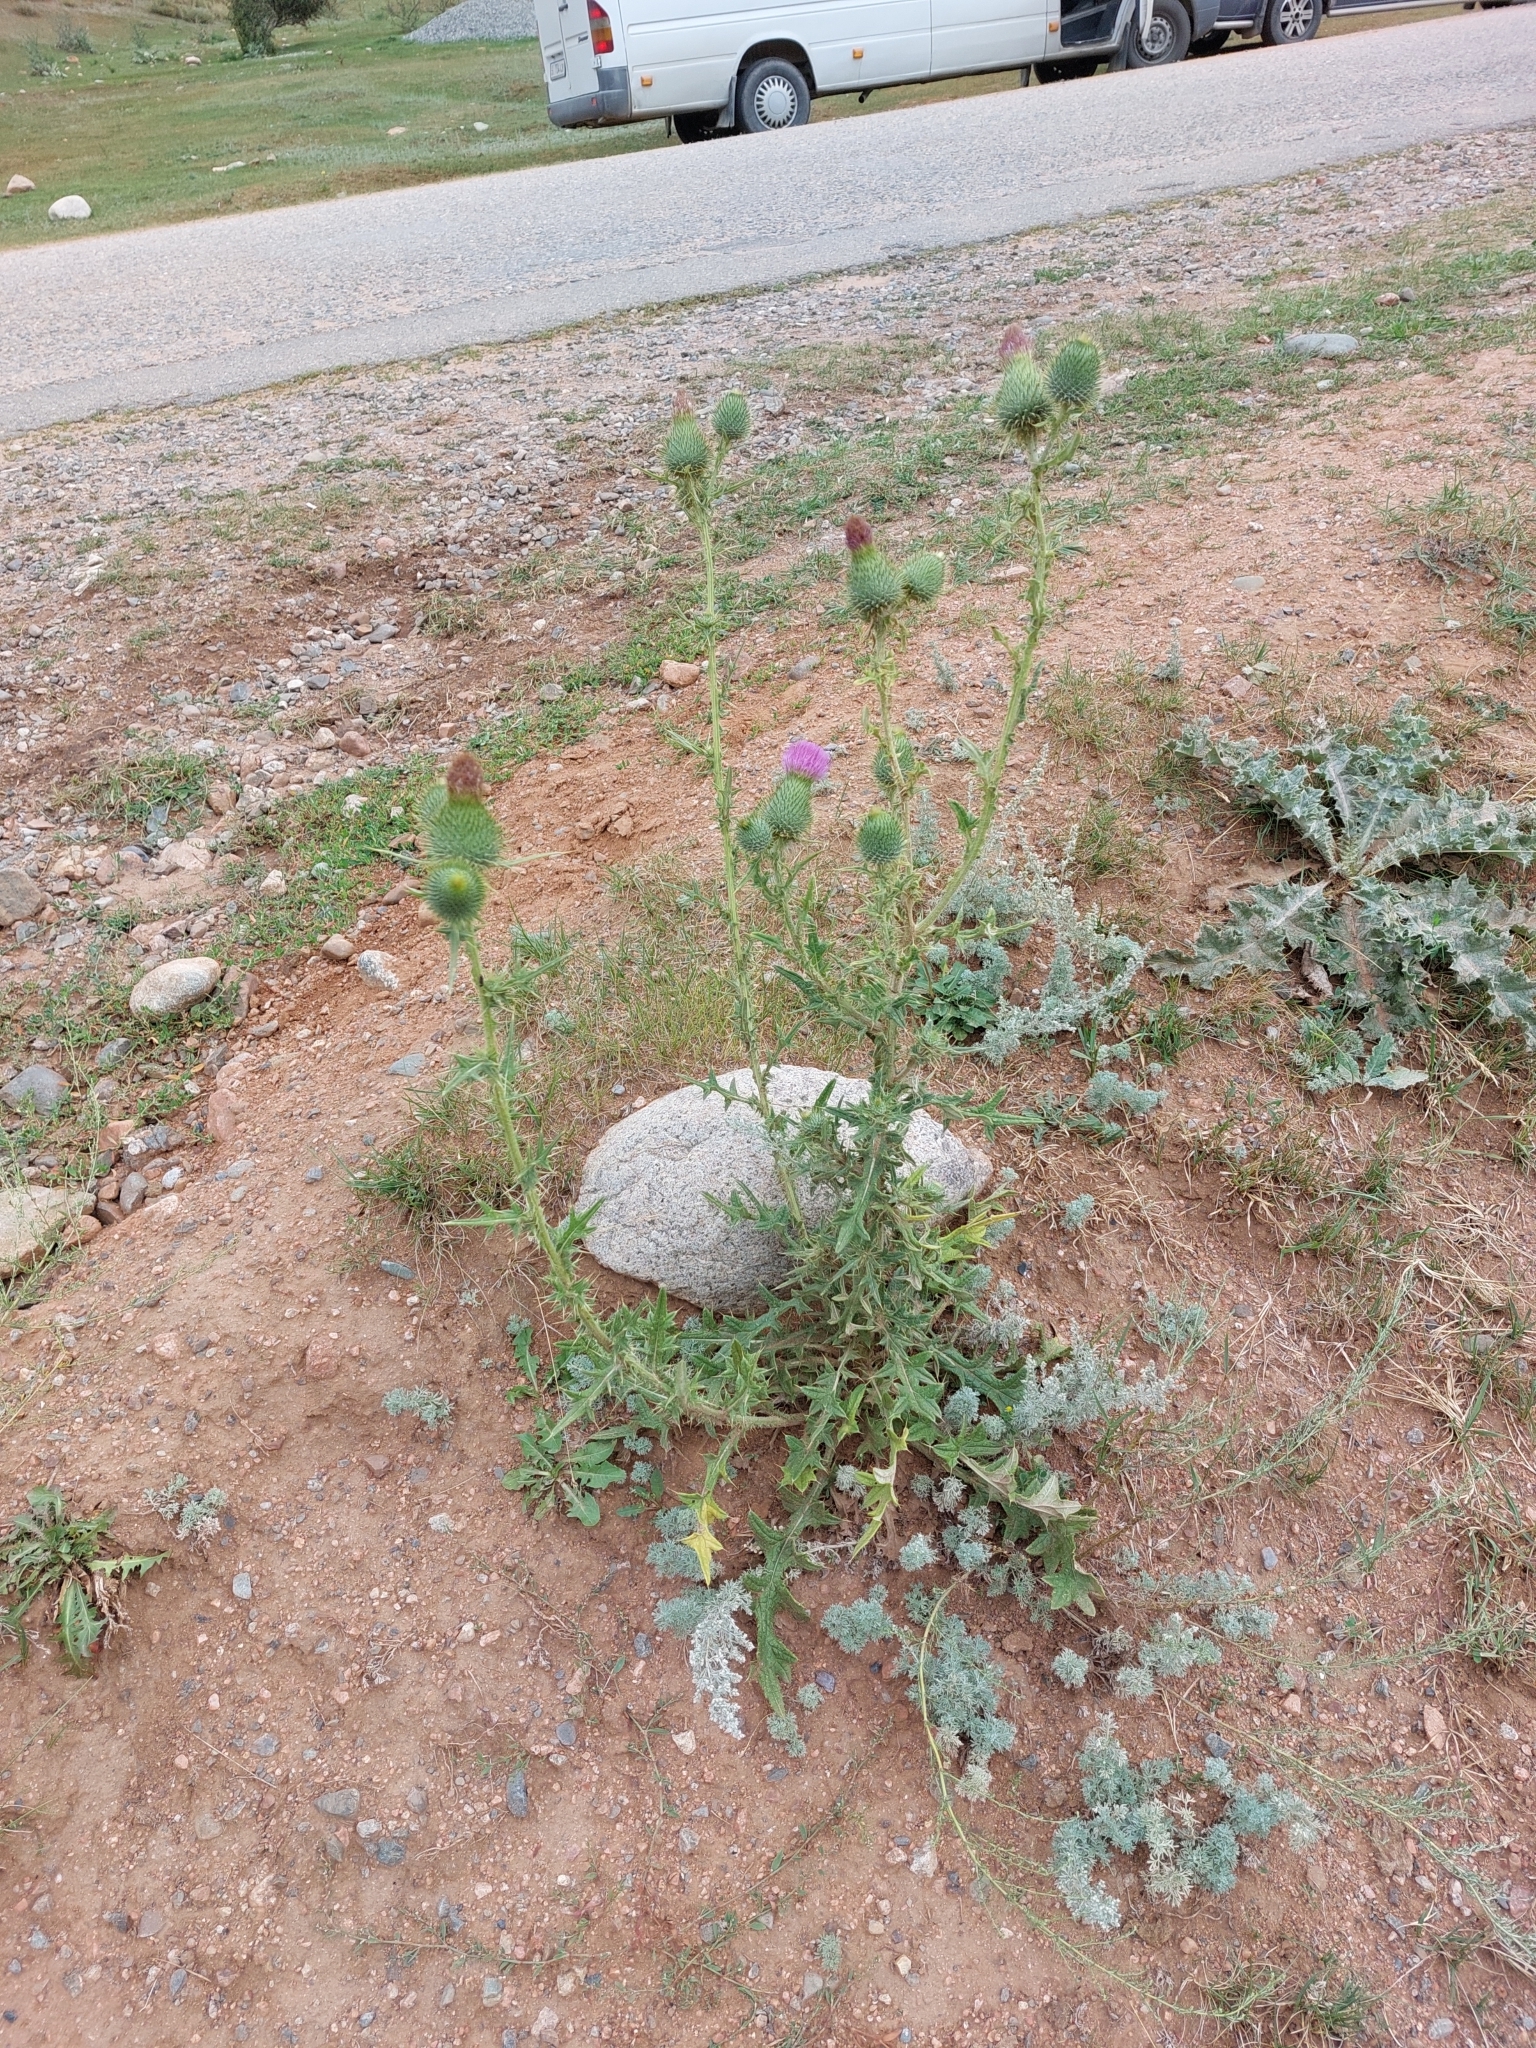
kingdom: Plantae
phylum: Tracheophyta
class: Magnoliopsida
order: Asterales
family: Asteraceae
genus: Cirsium
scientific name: Cirsium vulgare
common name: Bull thistle
